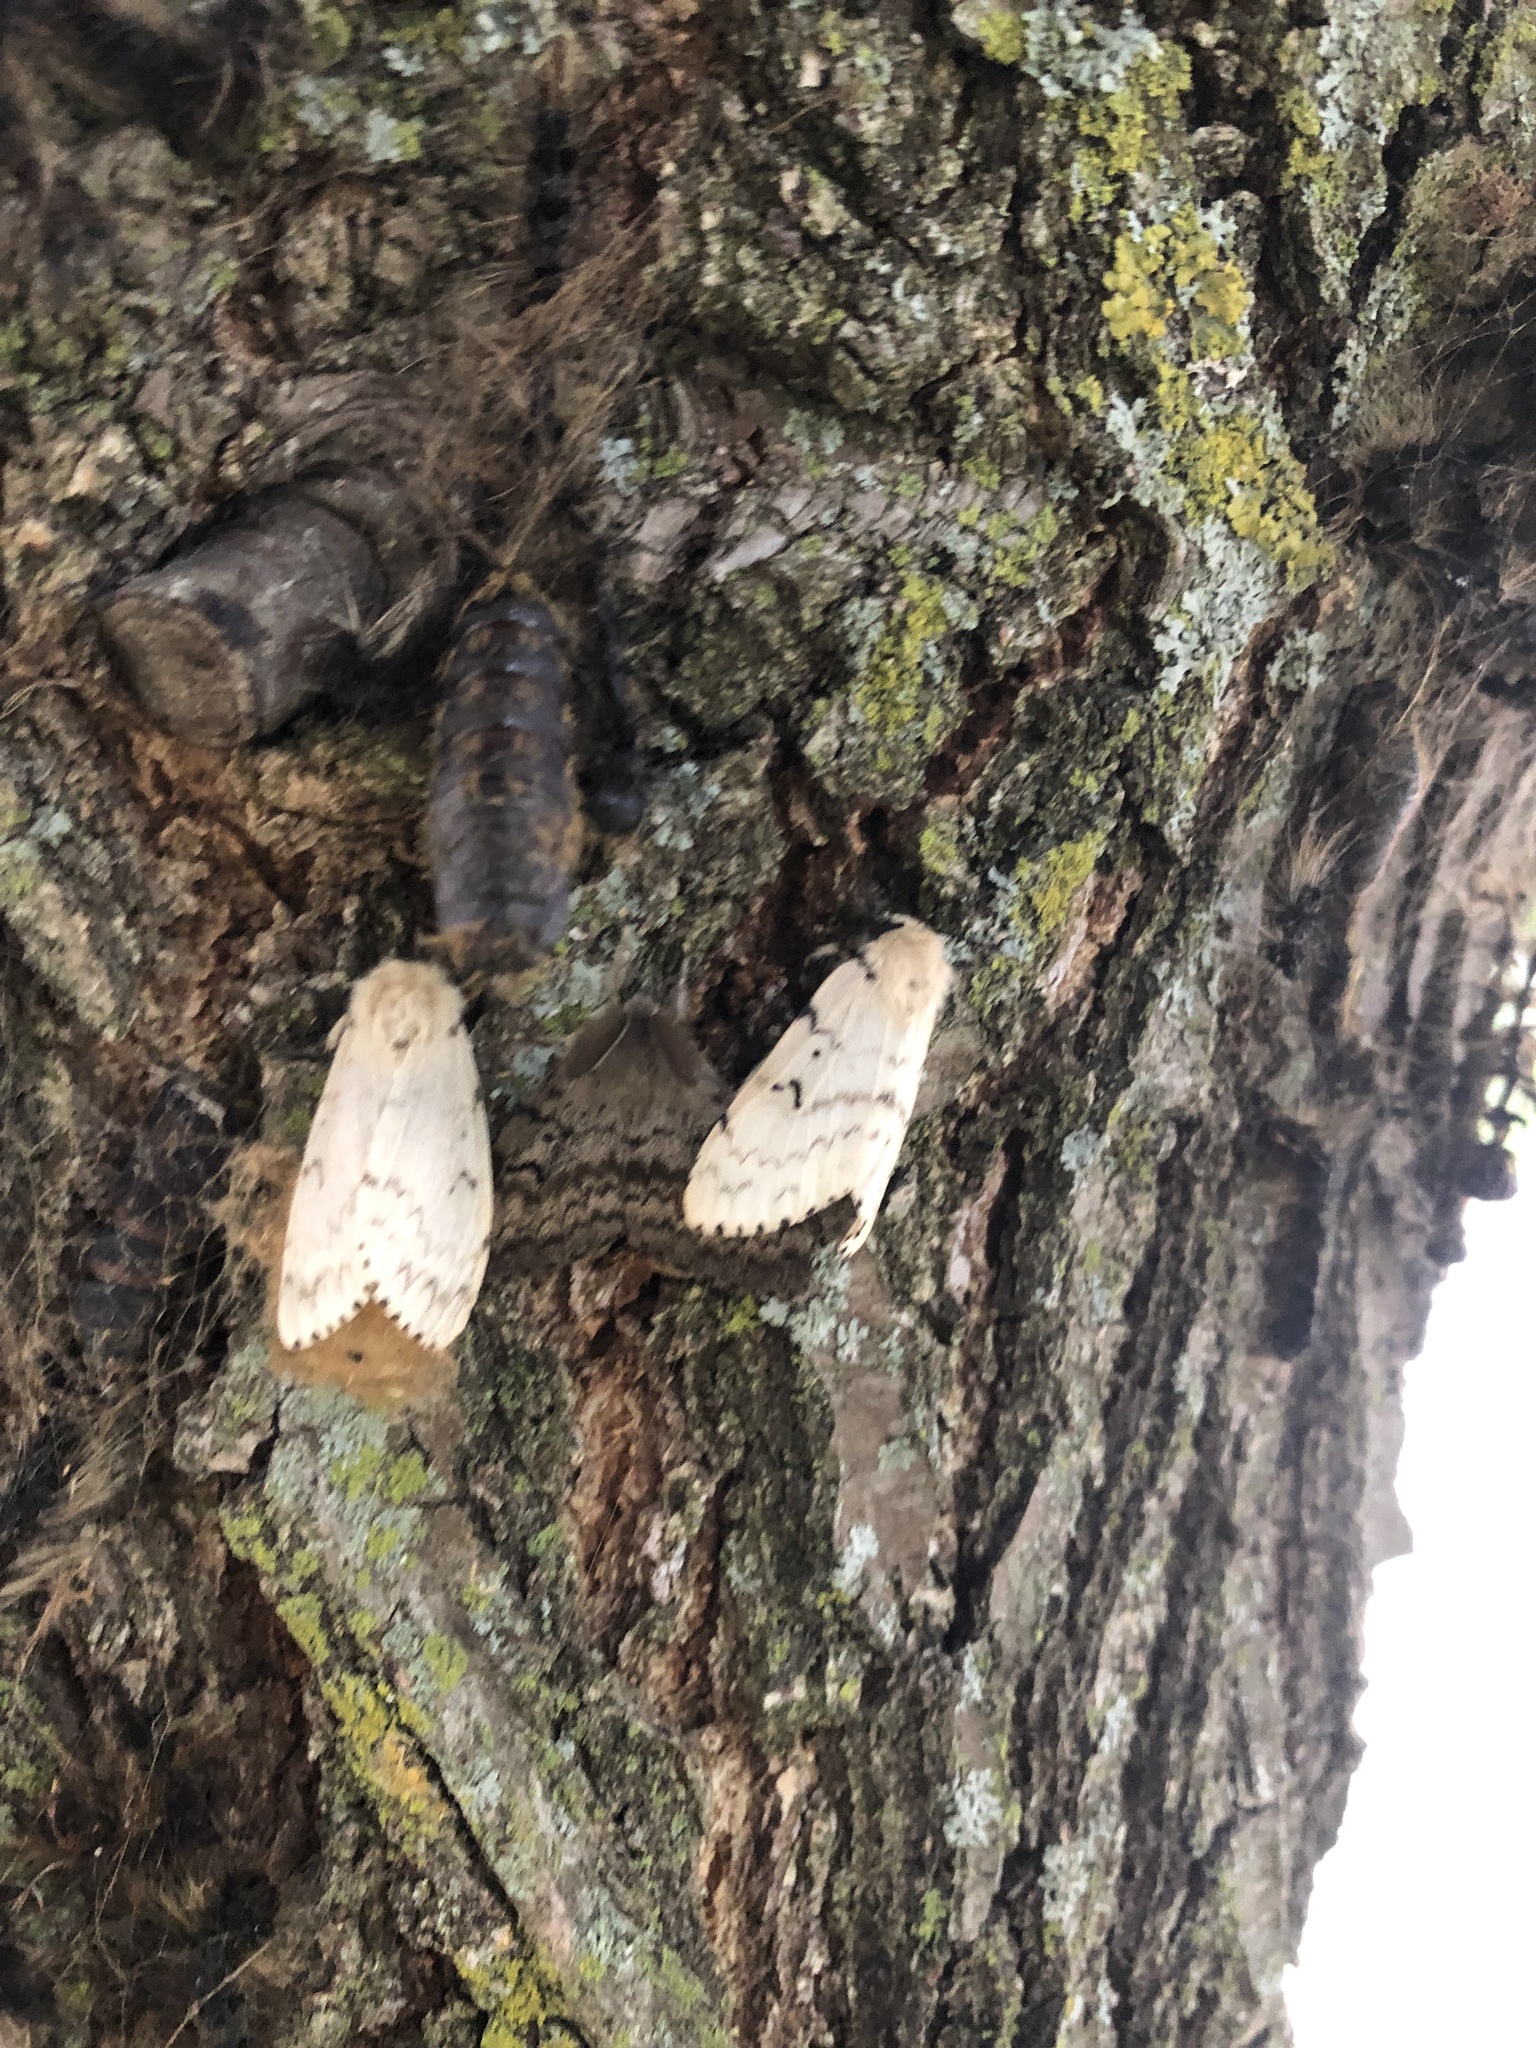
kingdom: Animalia
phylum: Arthropoda
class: Insecta
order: Lepidoptera
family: Erebidae
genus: Lymantria
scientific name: Lymantria dispar
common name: Gypsy moth
